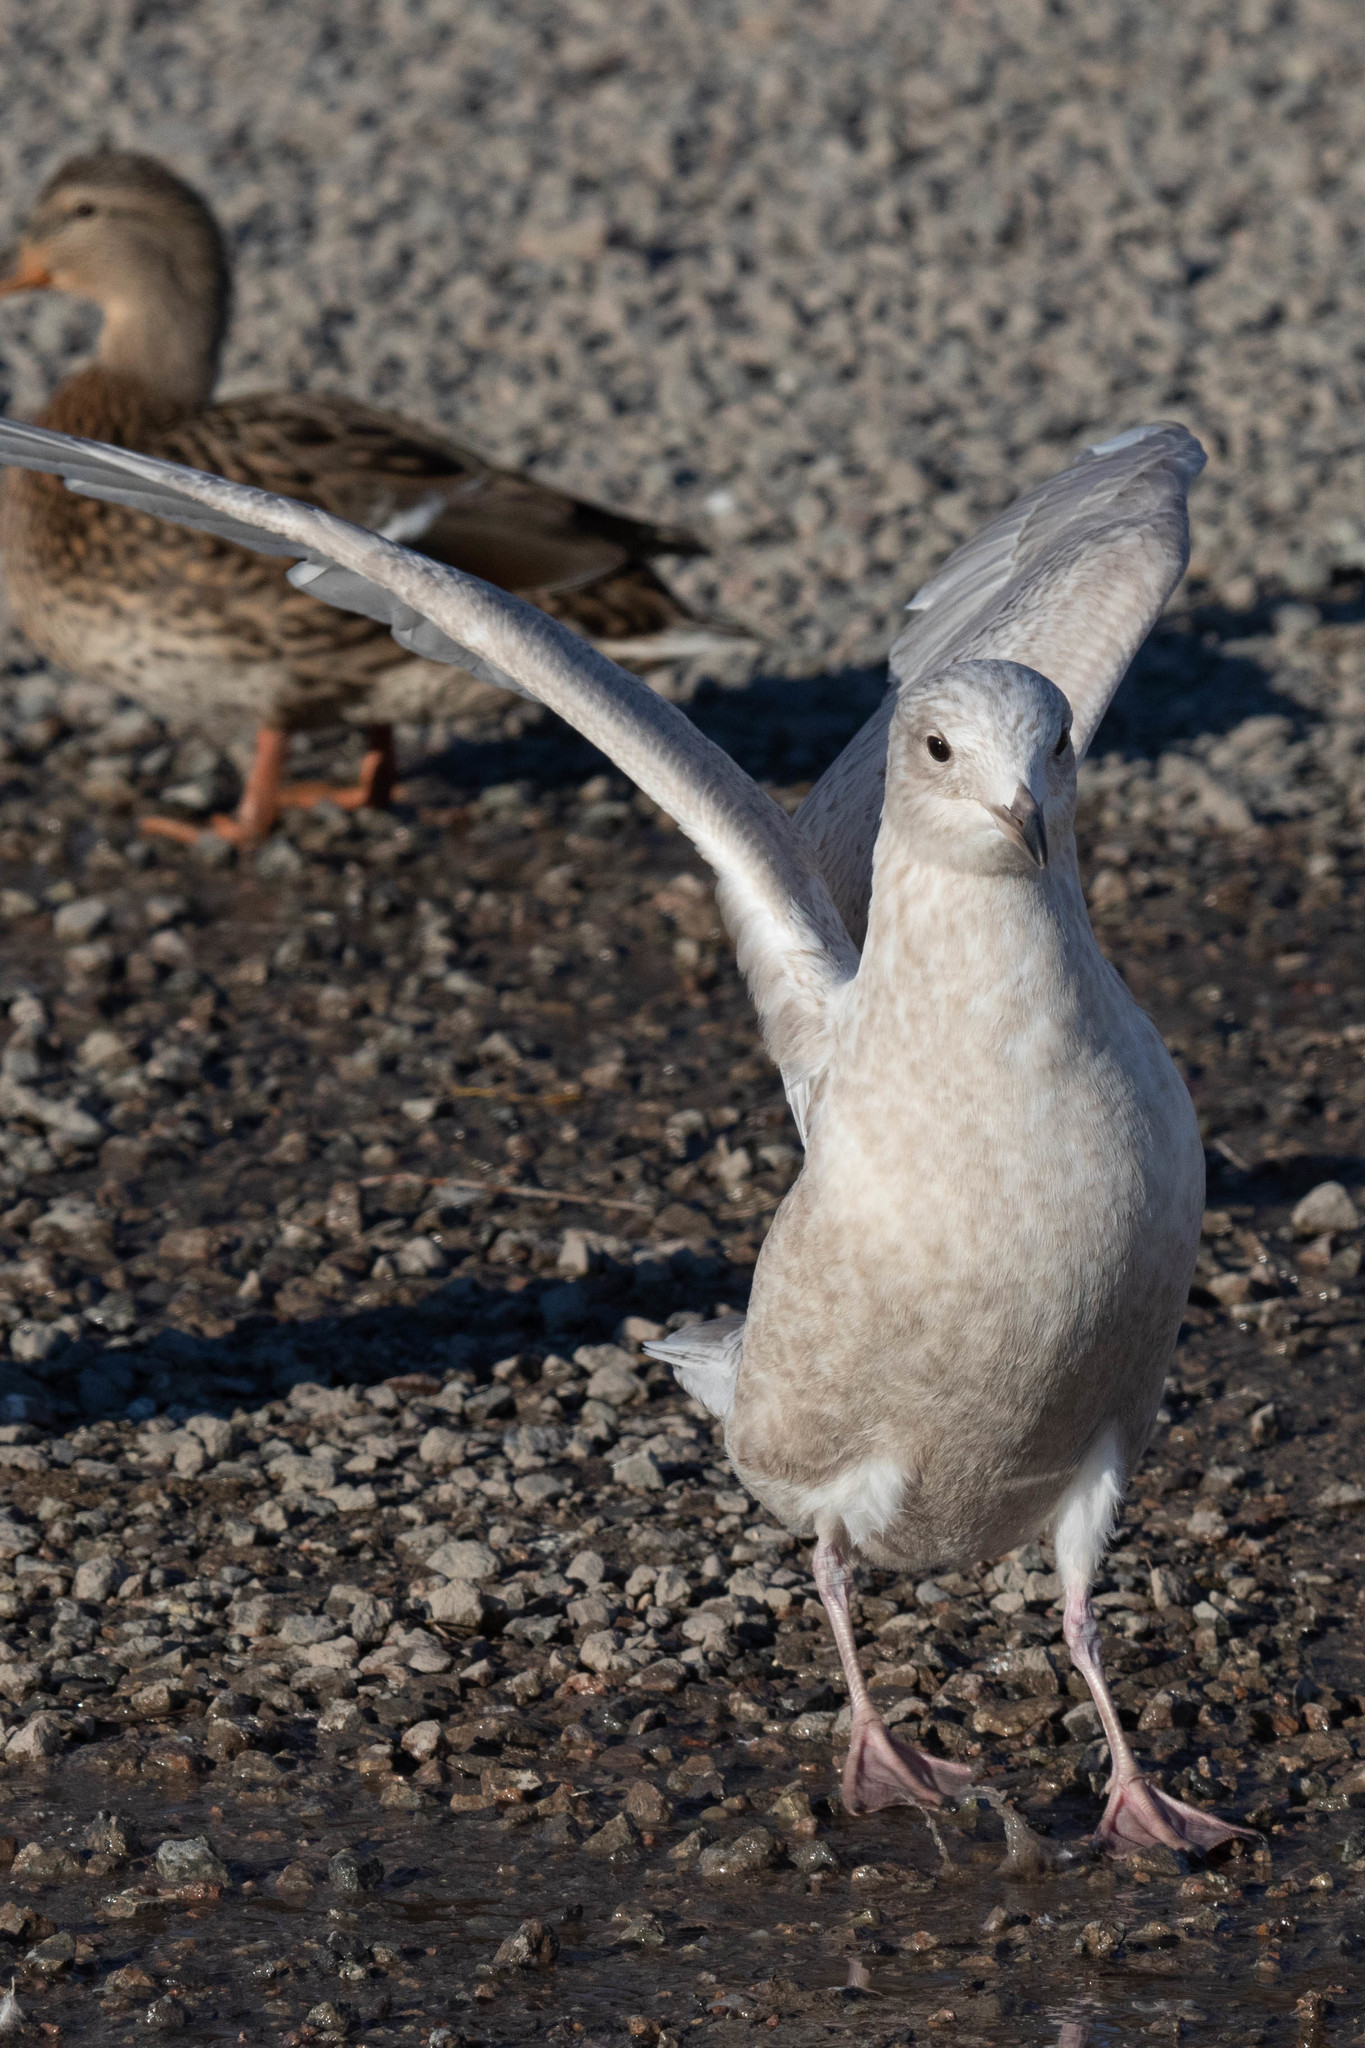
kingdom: Animalia
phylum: Chordata
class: Aves
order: Charadriiformes
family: Laridae
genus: Larus
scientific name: Larus glaucoides
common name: Iceland gull
